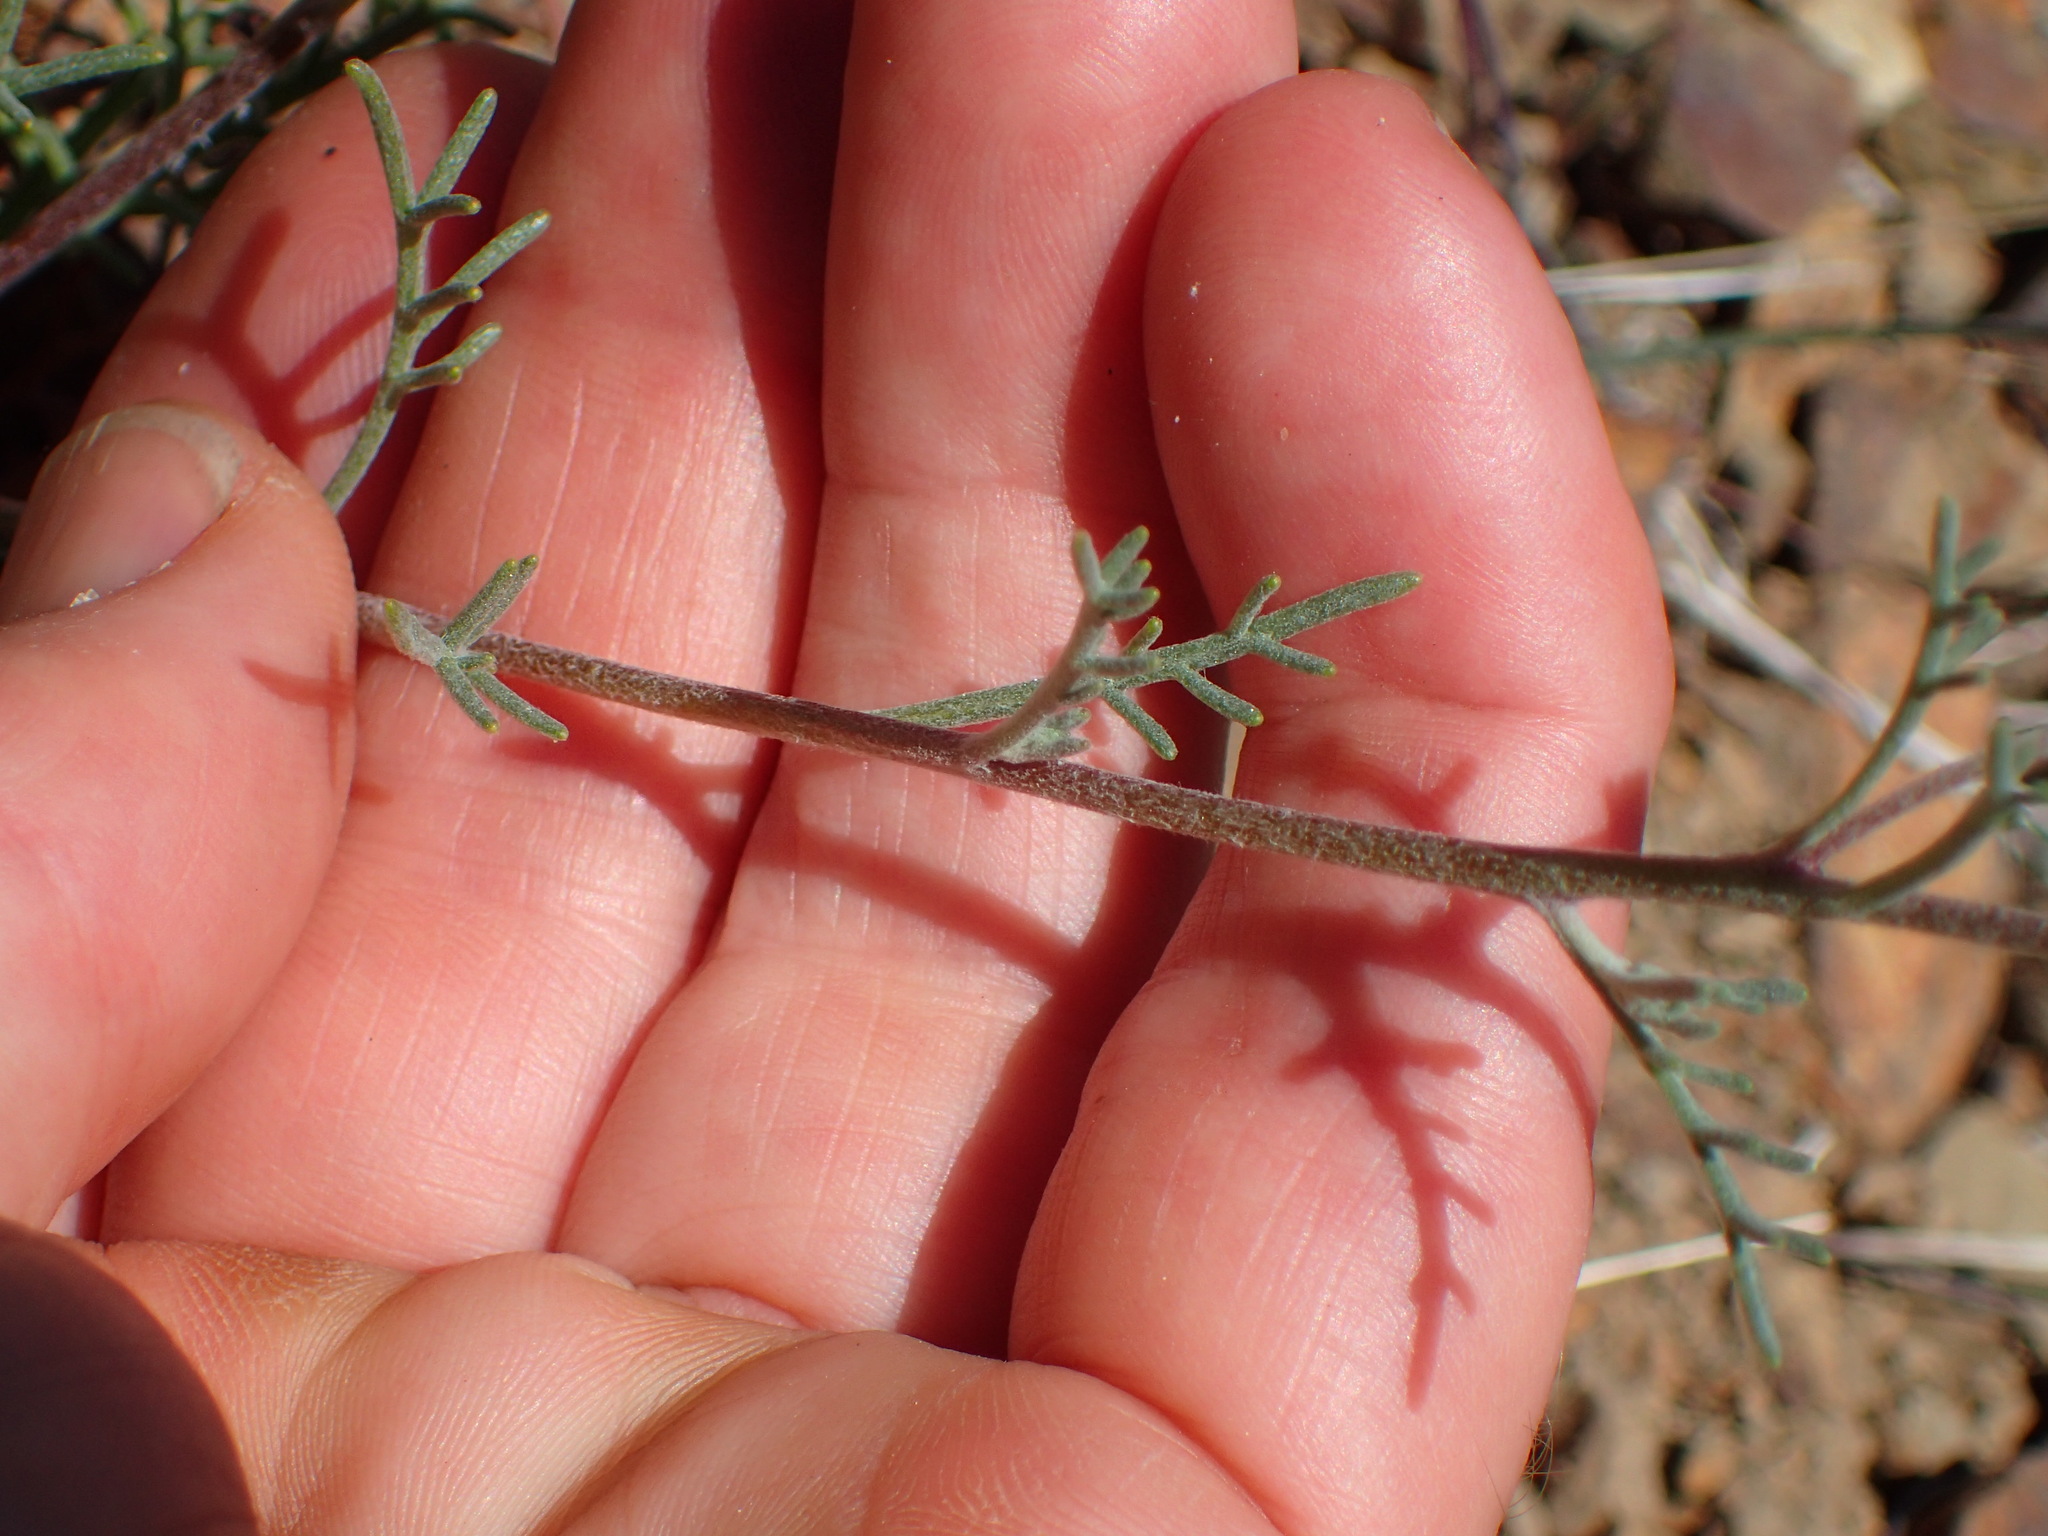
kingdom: Plantae
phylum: Tracheophyta
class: Magnoliopsida
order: Asterales
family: Asteraceae
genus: Chaenactis
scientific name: Chaenactis glabriuscula
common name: Yellow pincushion
